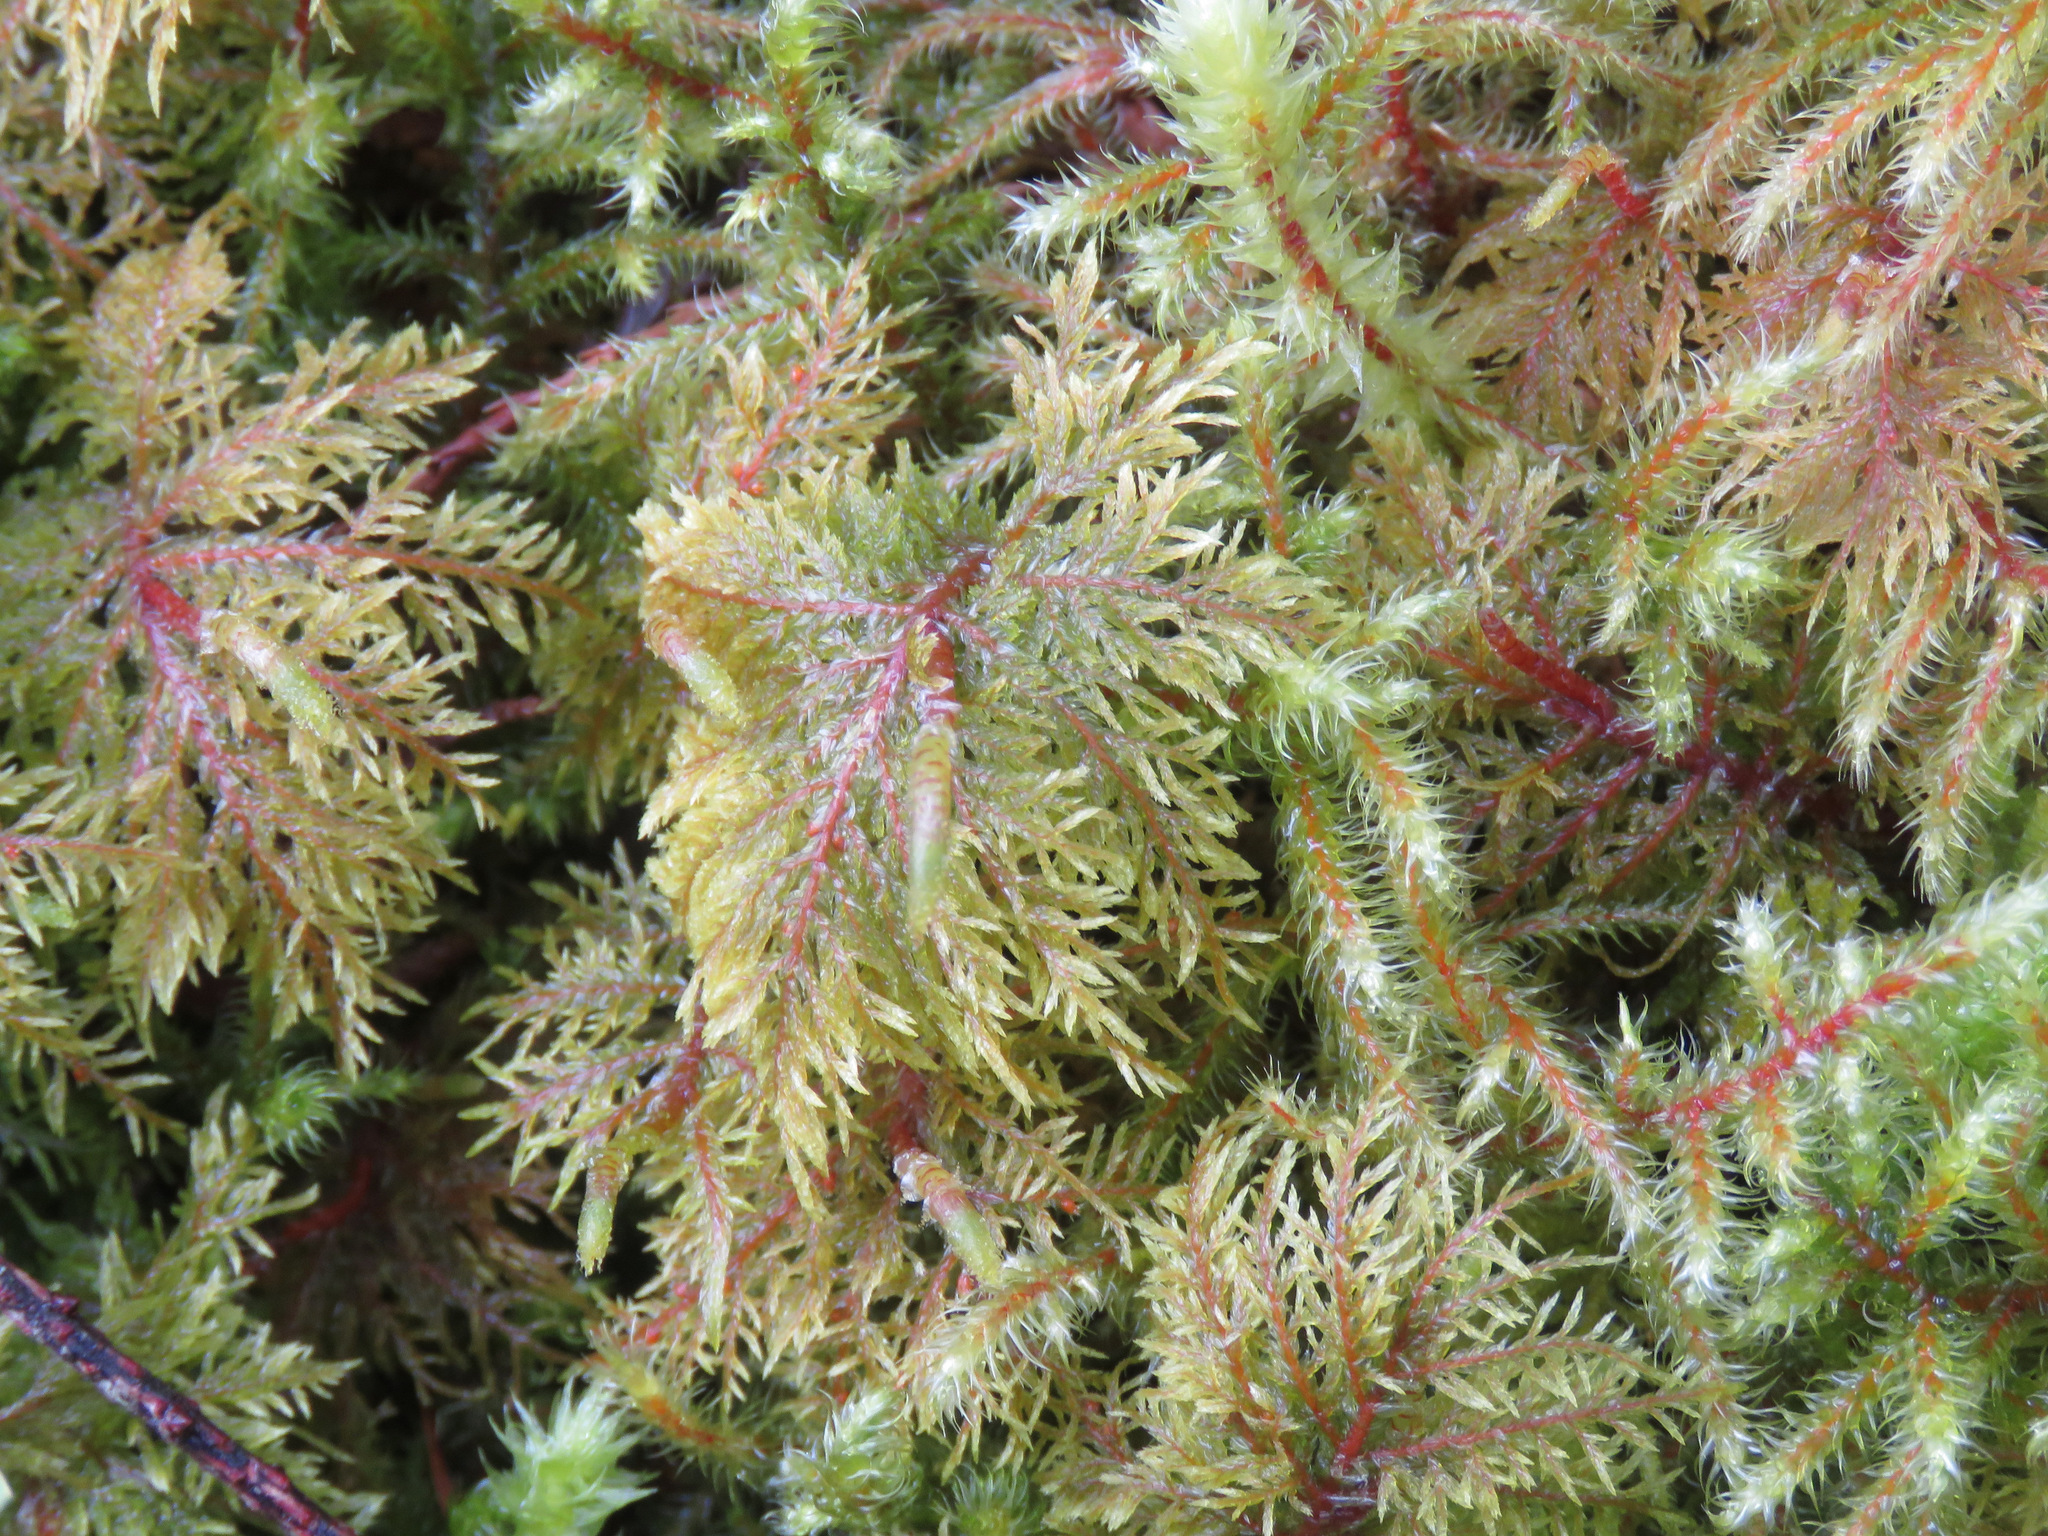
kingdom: Plantae
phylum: Bryophyta
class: Bryopsida
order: Hypnales
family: Hylocomiaceae
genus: Hylocomium
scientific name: Hylocomium splendens
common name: Stairstep moss
